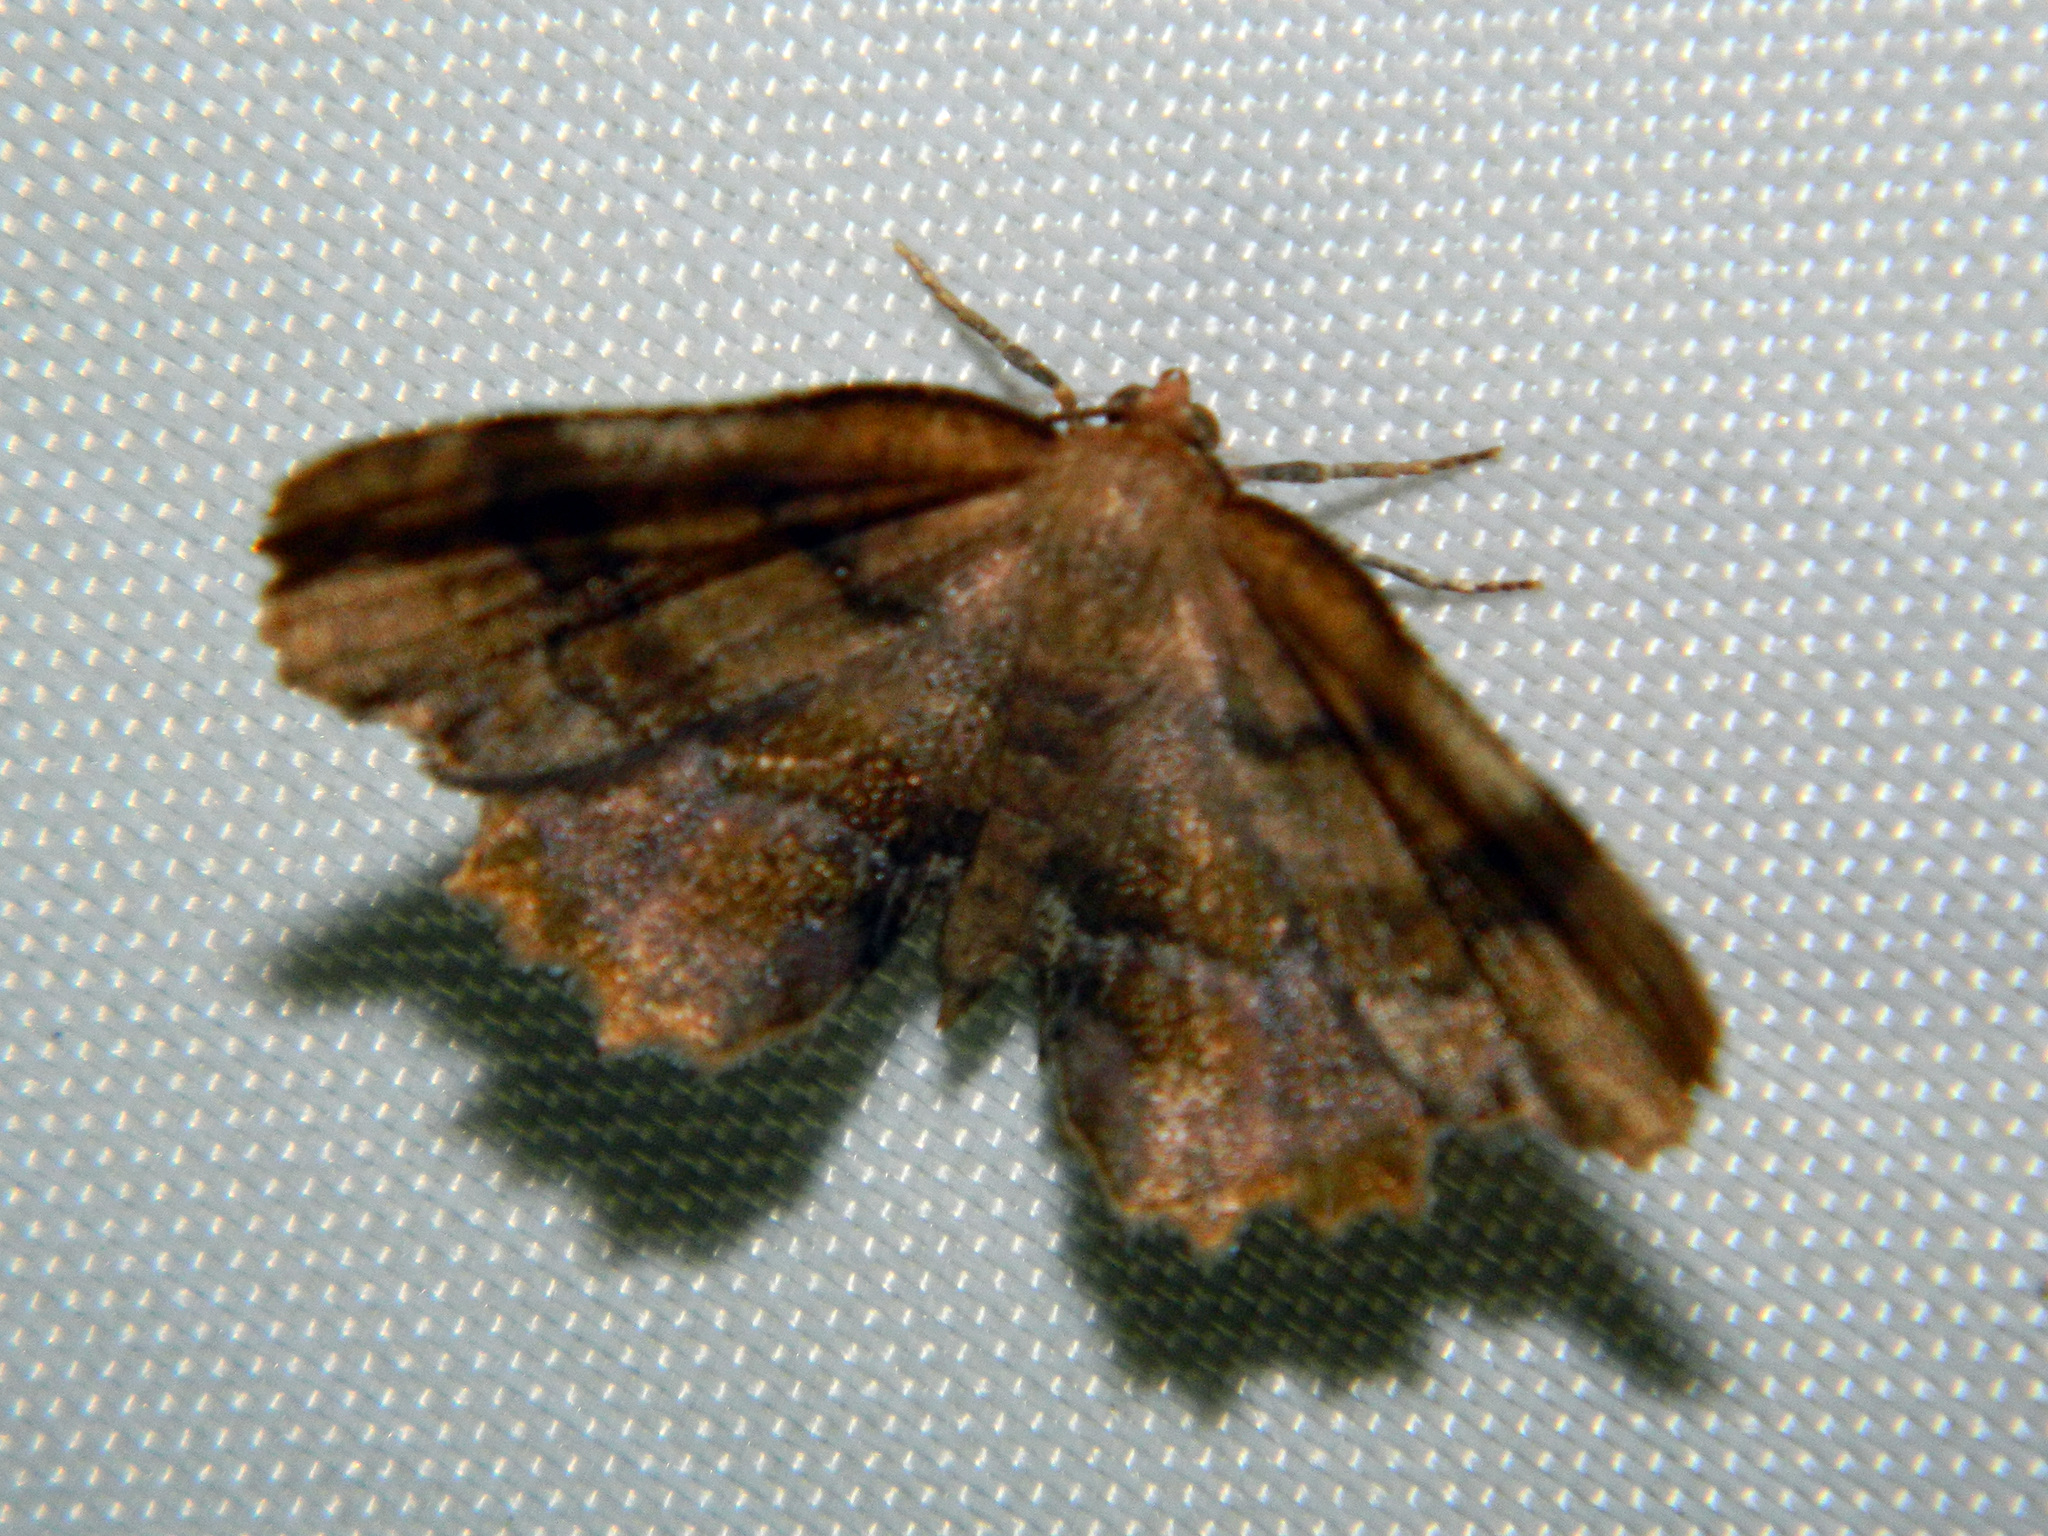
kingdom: Animalia
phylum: Arthropoda
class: Insecta
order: Lepidoptera
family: Geometridae
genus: Cepphis
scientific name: Cepphis armataria
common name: Scallop moth
